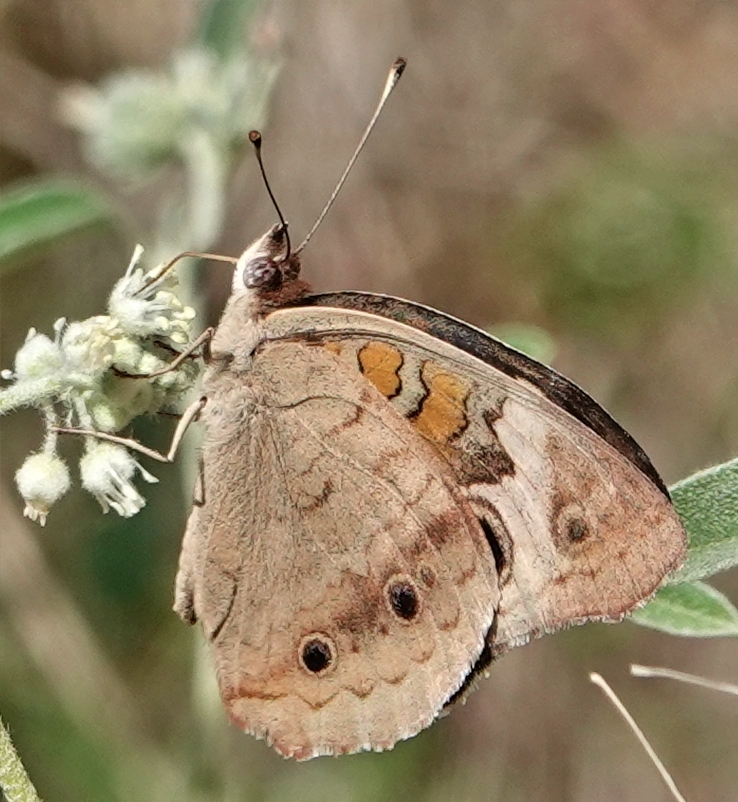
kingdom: Animalia
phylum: Arthropoda
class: Insecta
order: Lepidoptera
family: Nymphalidae
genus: Junonia
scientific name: Junonia coenia
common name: Common buckeye
